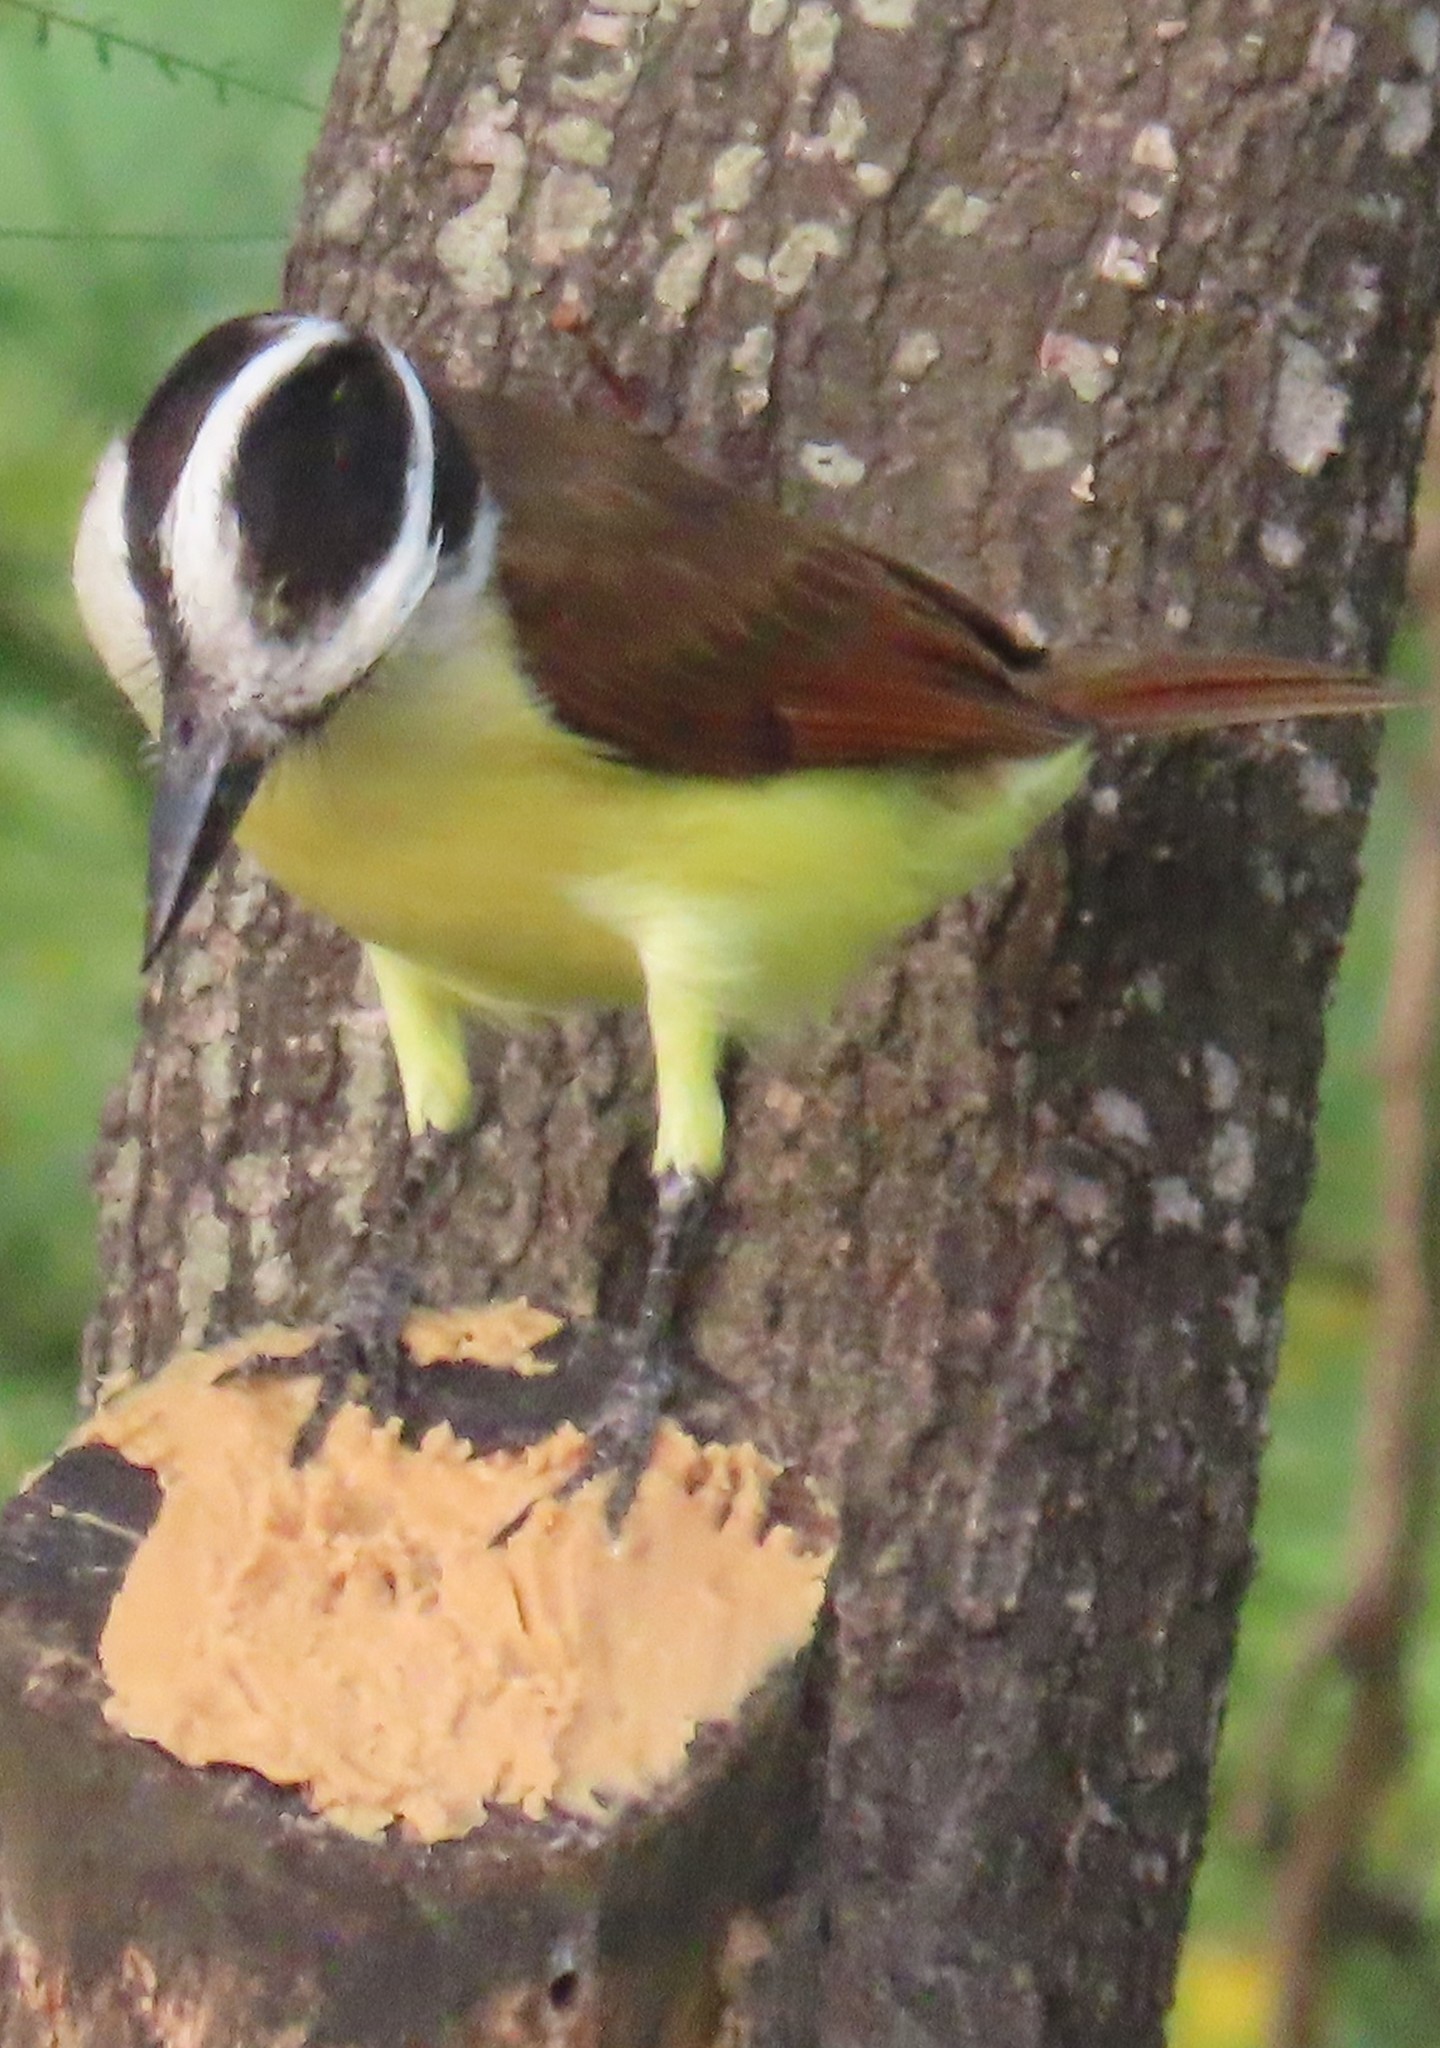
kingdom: Animalia
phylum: Chordata
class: Aves
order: Passeriformes
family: Tyrannidae
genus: Pitangus
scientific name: Pitangus sulphuratus
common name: Great kiskadee
